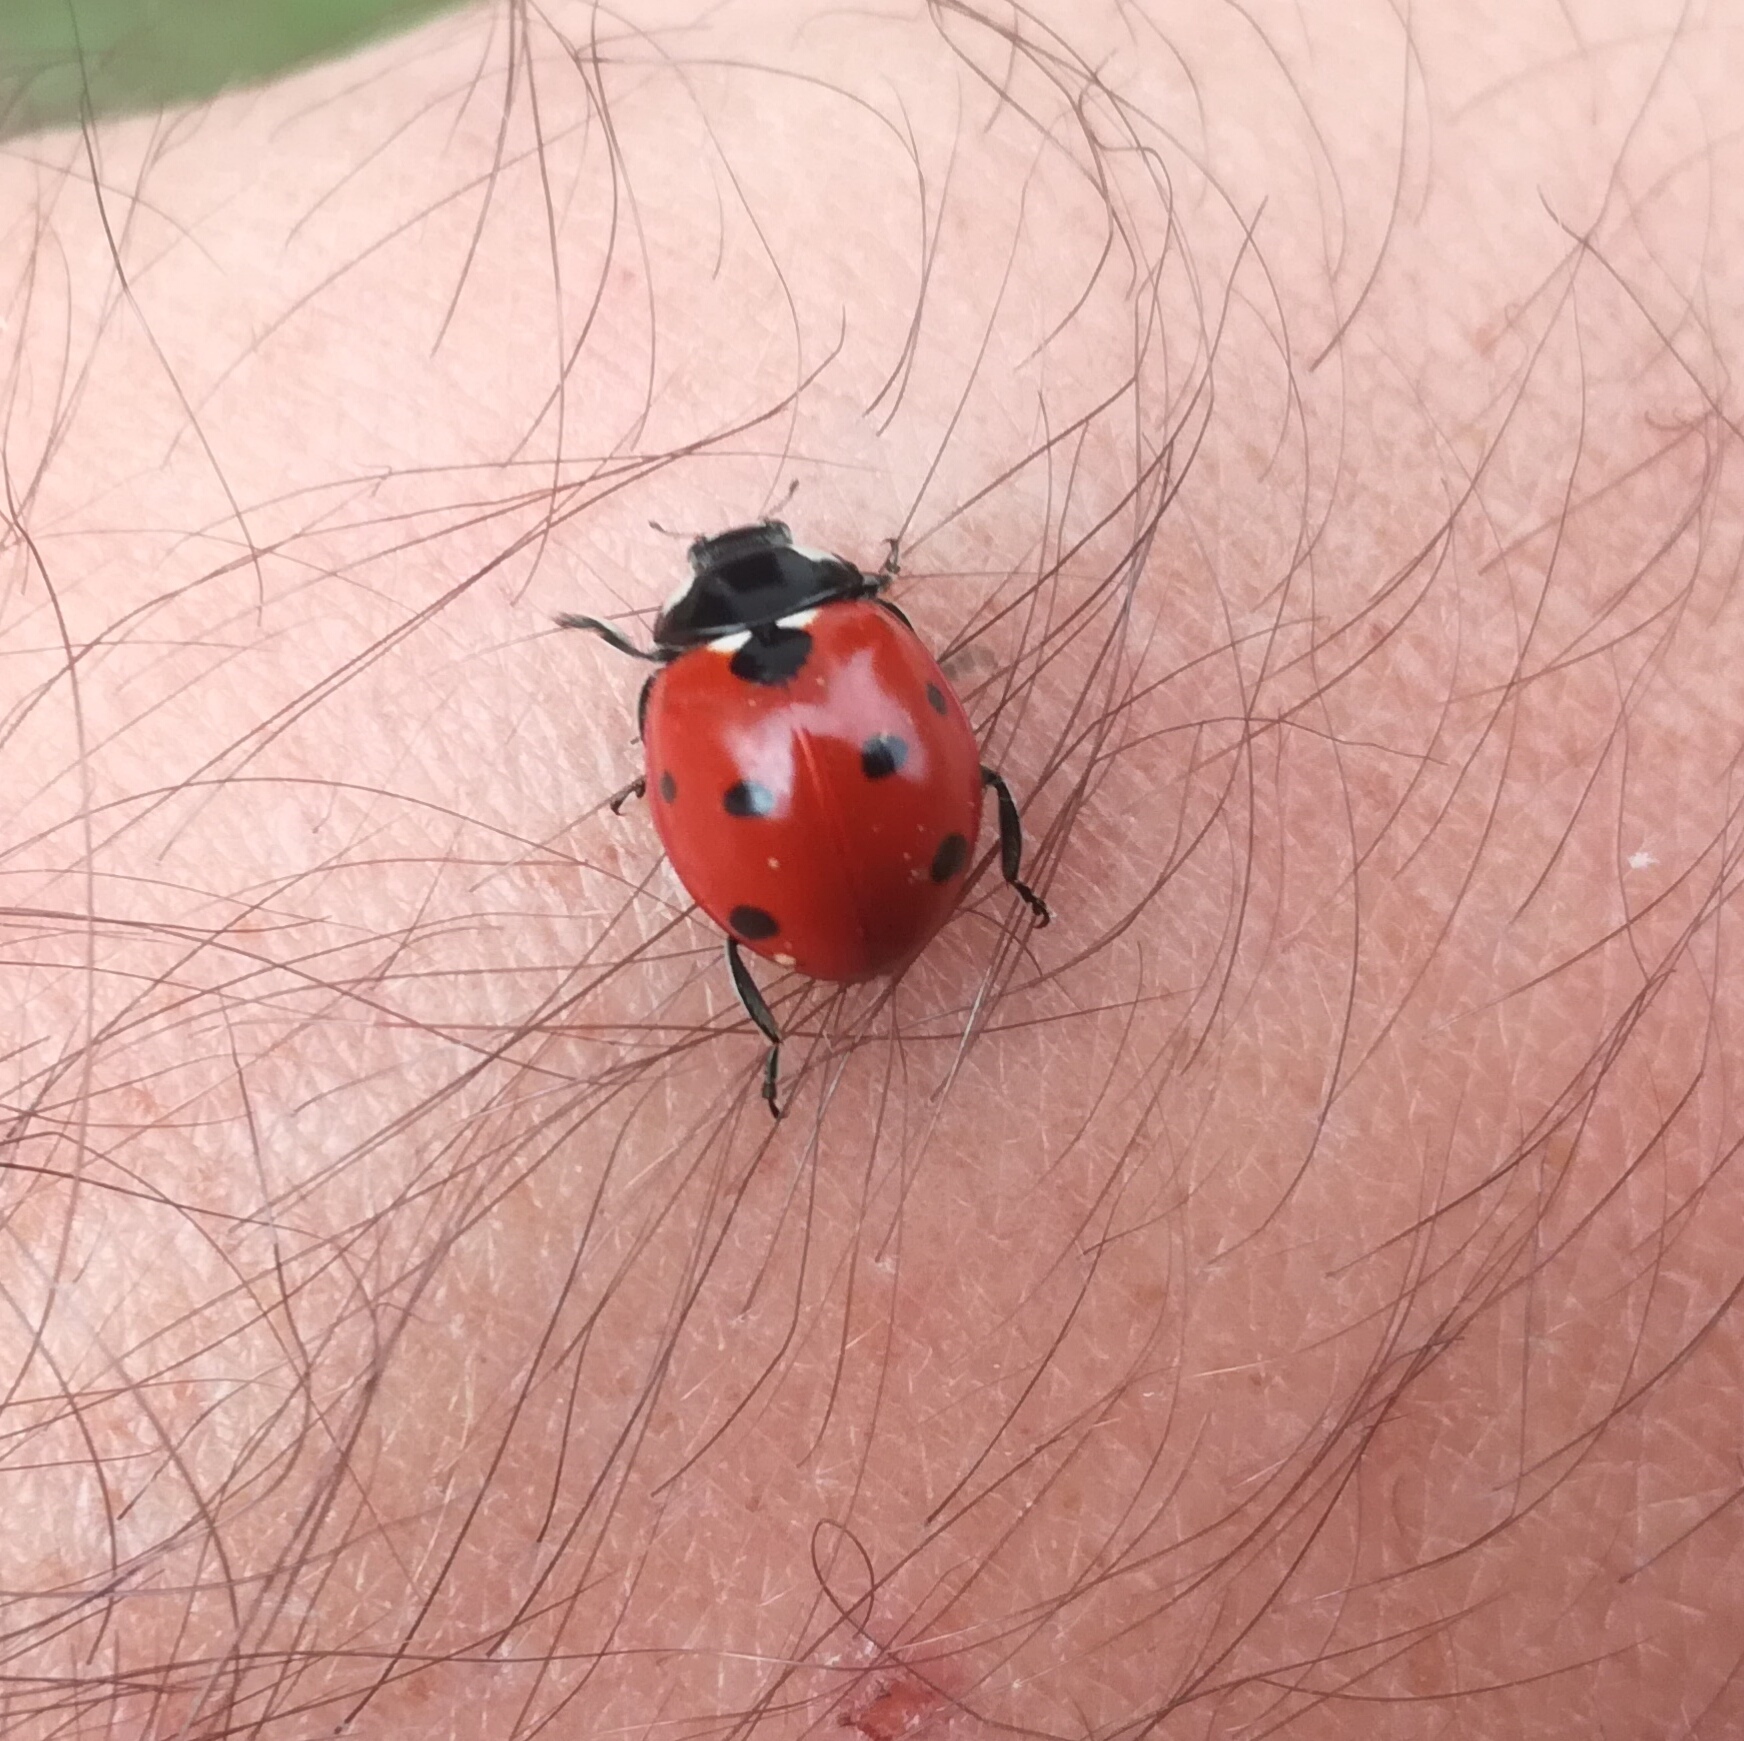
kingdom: Animalia
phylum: Arthropoda
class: Insecta
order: Coleoptera
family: Coccinellidae
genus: Coccinella
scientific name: Coccinella septempunctata
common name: Sevenspotted lady beetle
